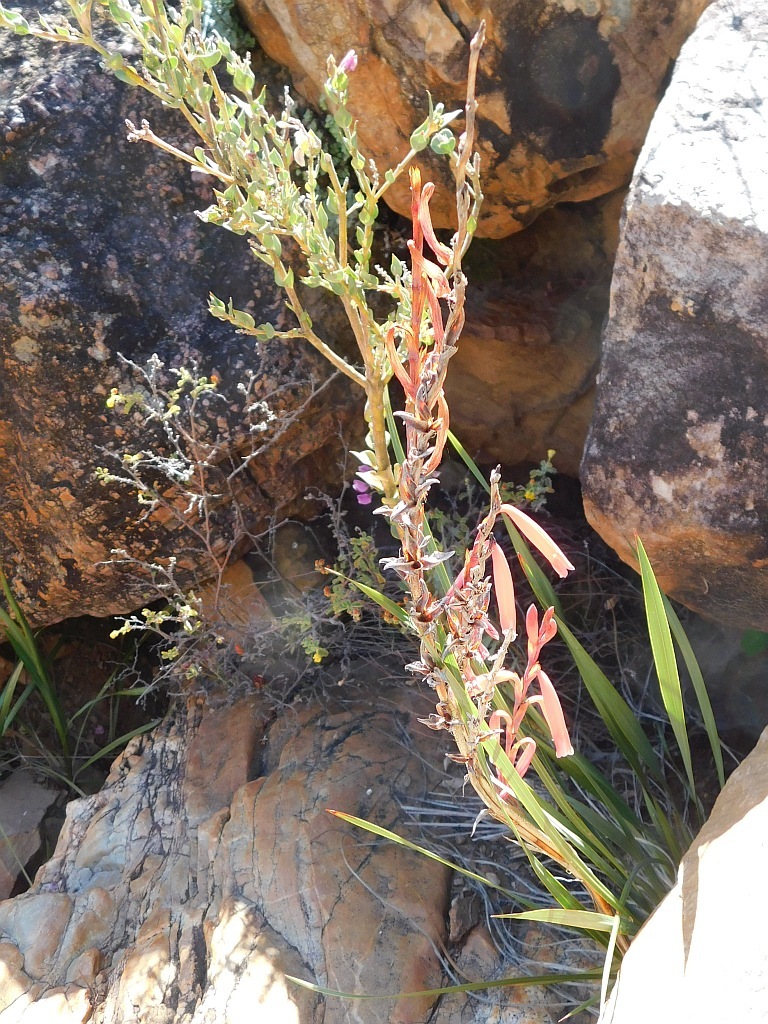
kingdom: Plantae
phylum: Tracheophyta
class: Liliopsida
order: Asparagales
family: Iridaceae
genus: Watsonia
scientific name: Watsonia aletroides
